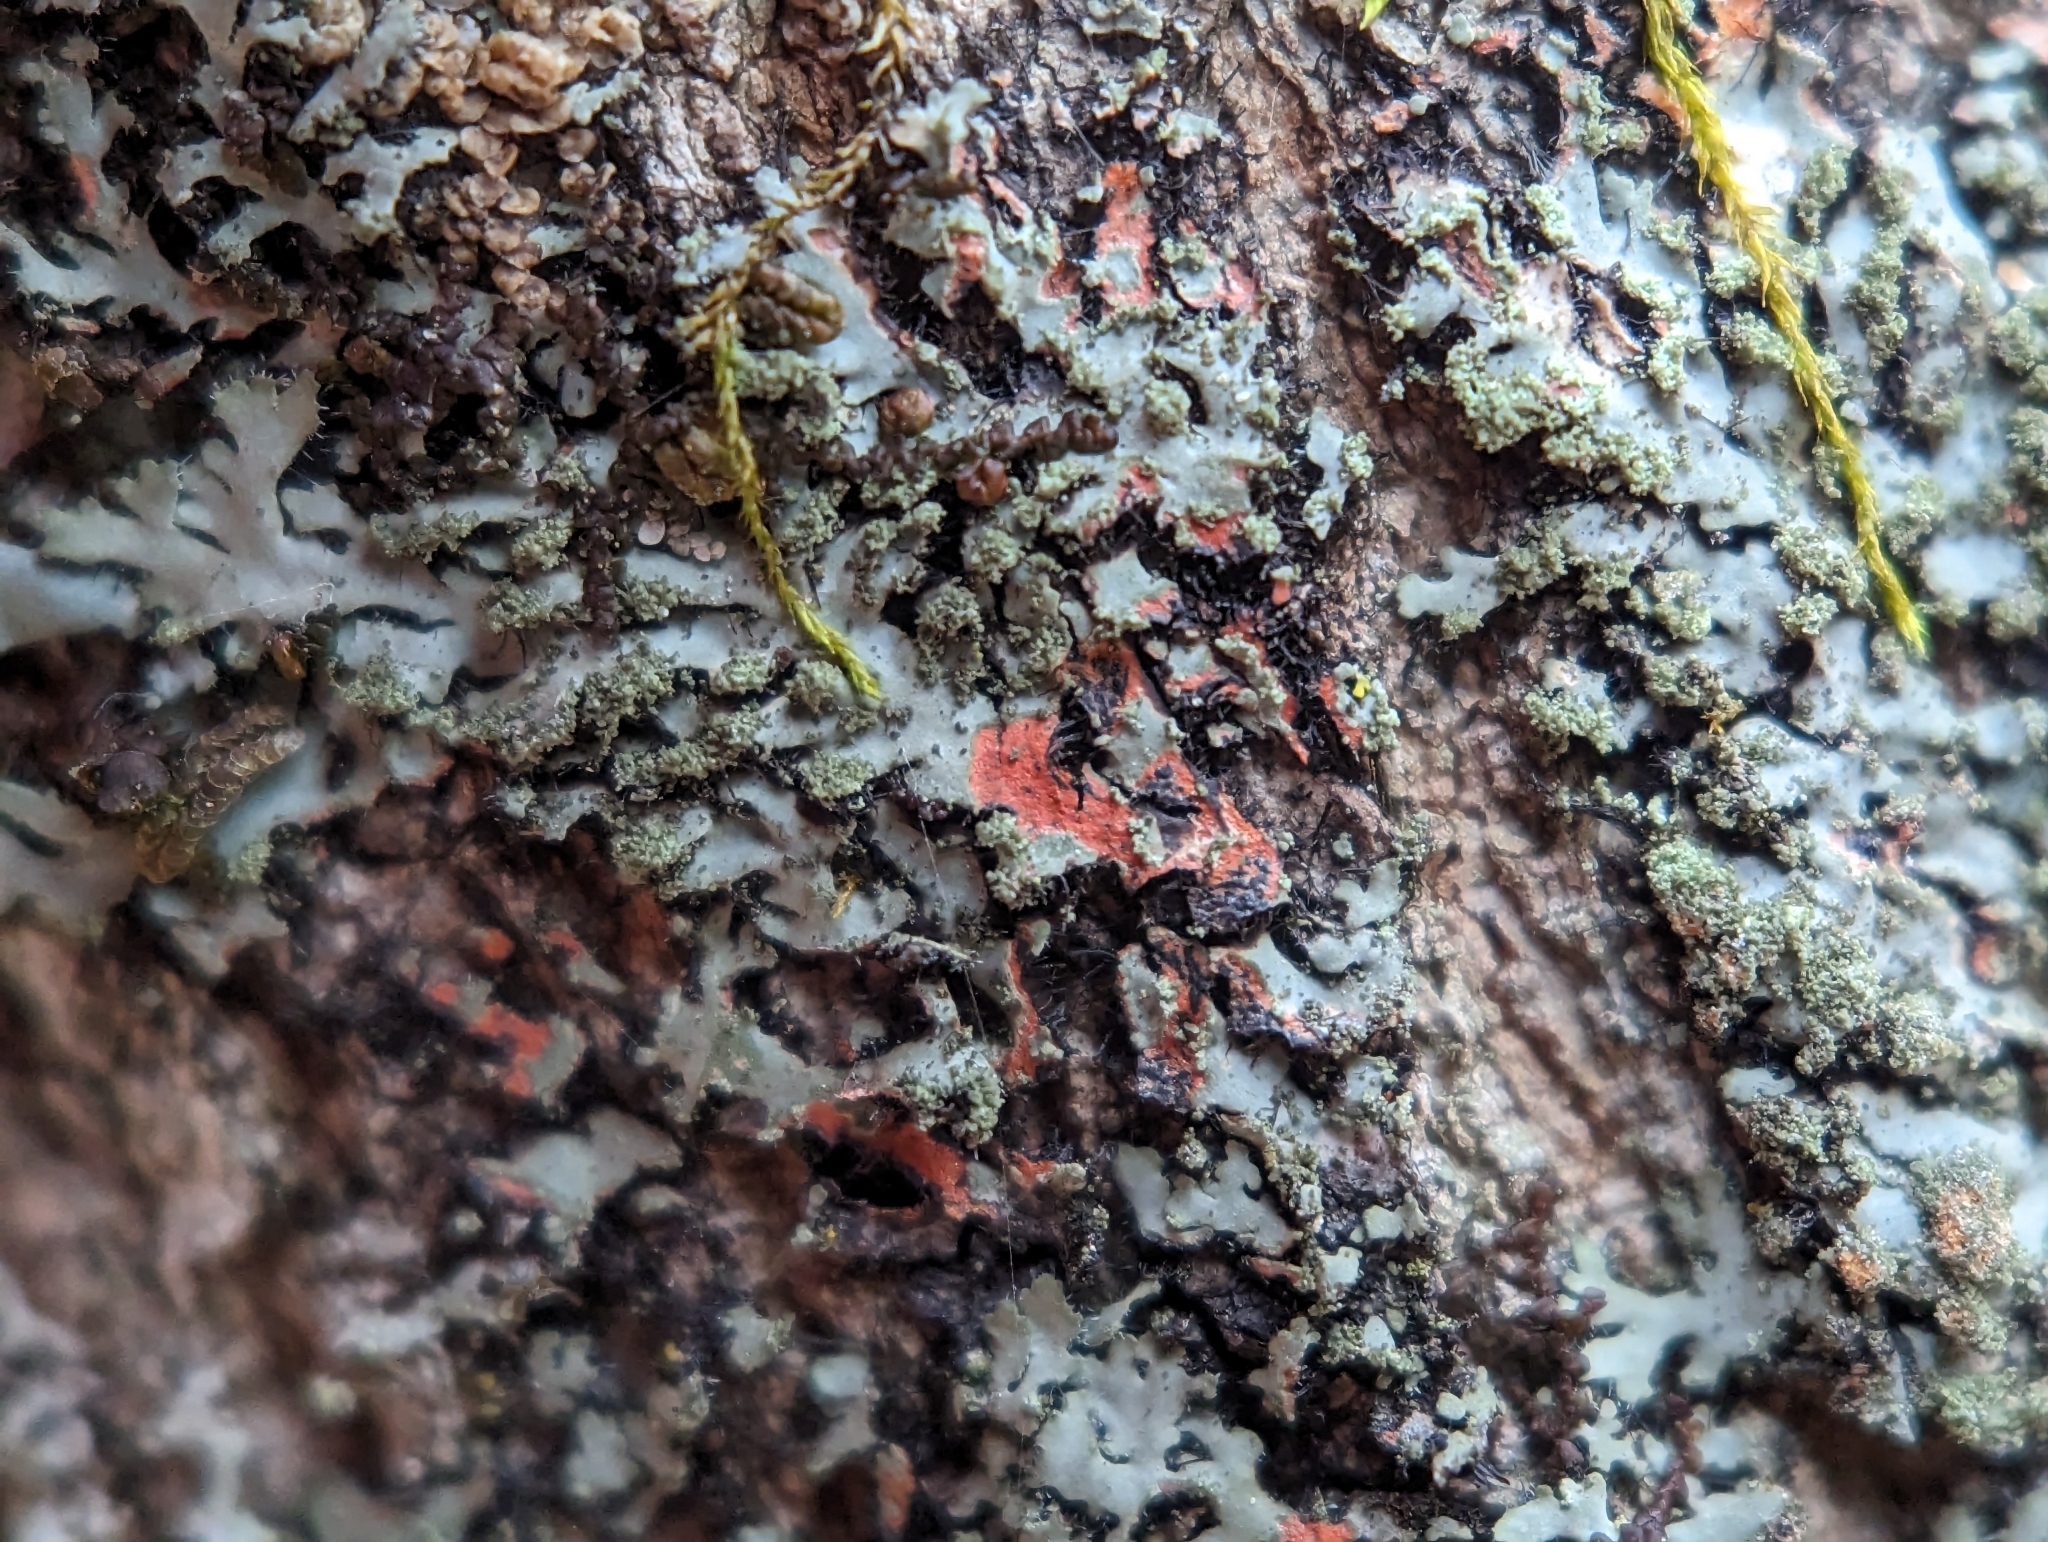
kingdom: Fungi
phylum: Ascomycota
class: Lecanoromycetes
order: Caliciales
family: Physciaceae
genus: Phaeophyscia
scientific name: Phaeophyscia rubropulchra
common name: Orange-cored shadow lichen
